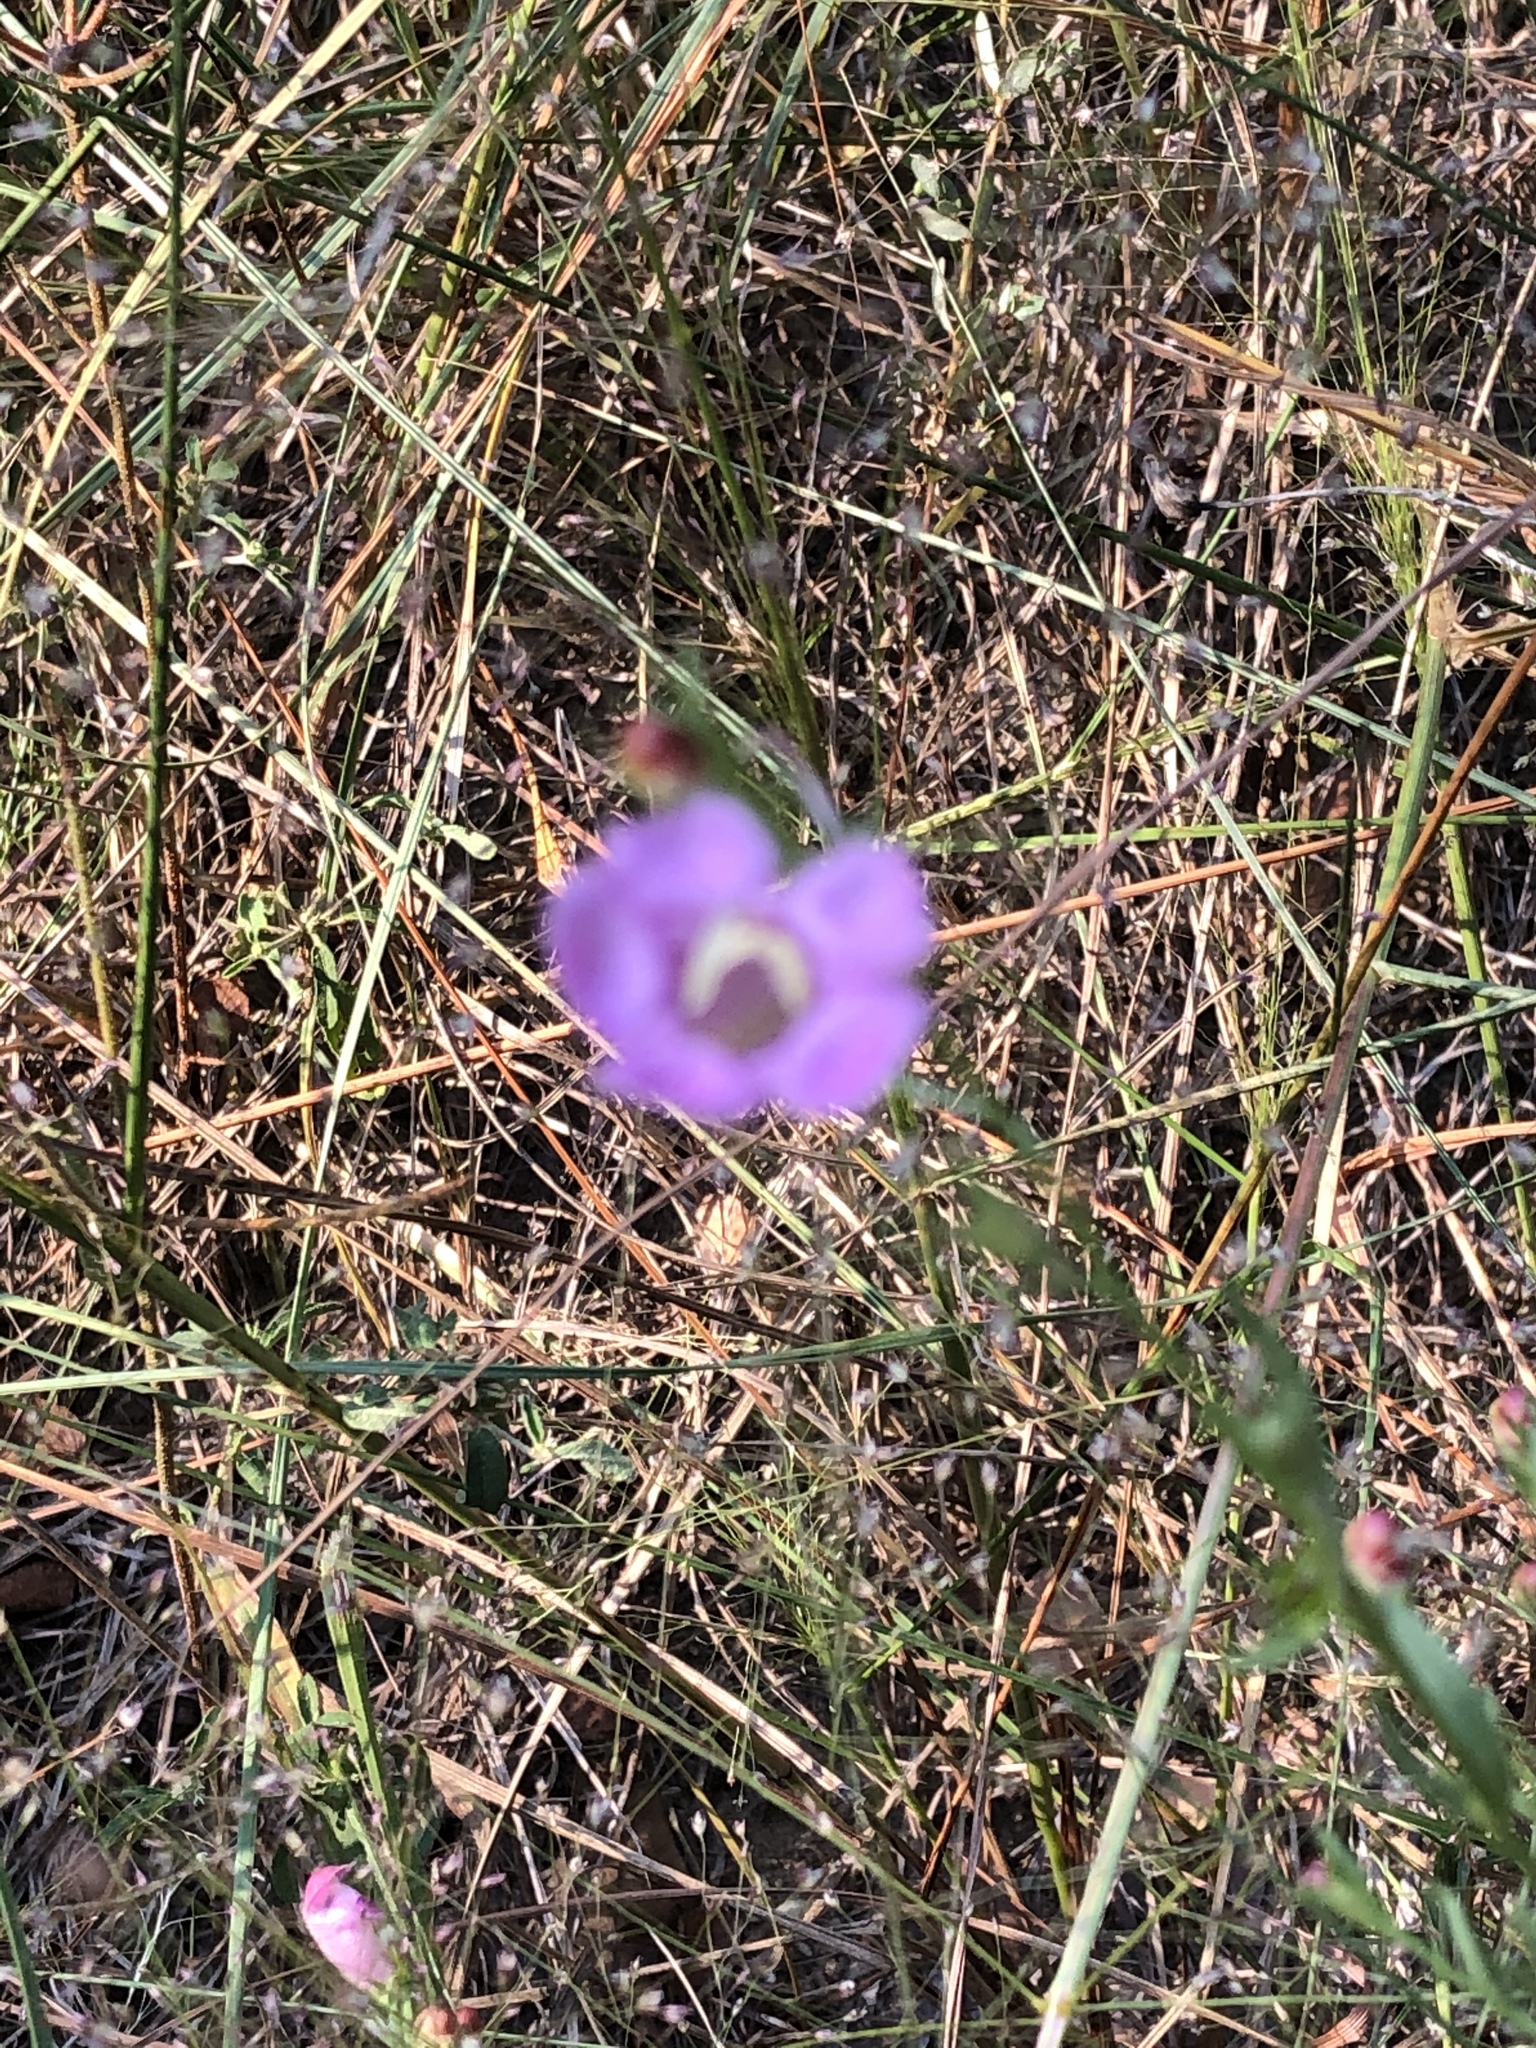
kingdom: Plantae
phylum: Tracheophyta
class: Magnoliopsida
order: Lamiales
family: Orobanchaceae
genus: Agalinis
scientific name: Agalinis heterophylla
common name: Prairie agalinis
